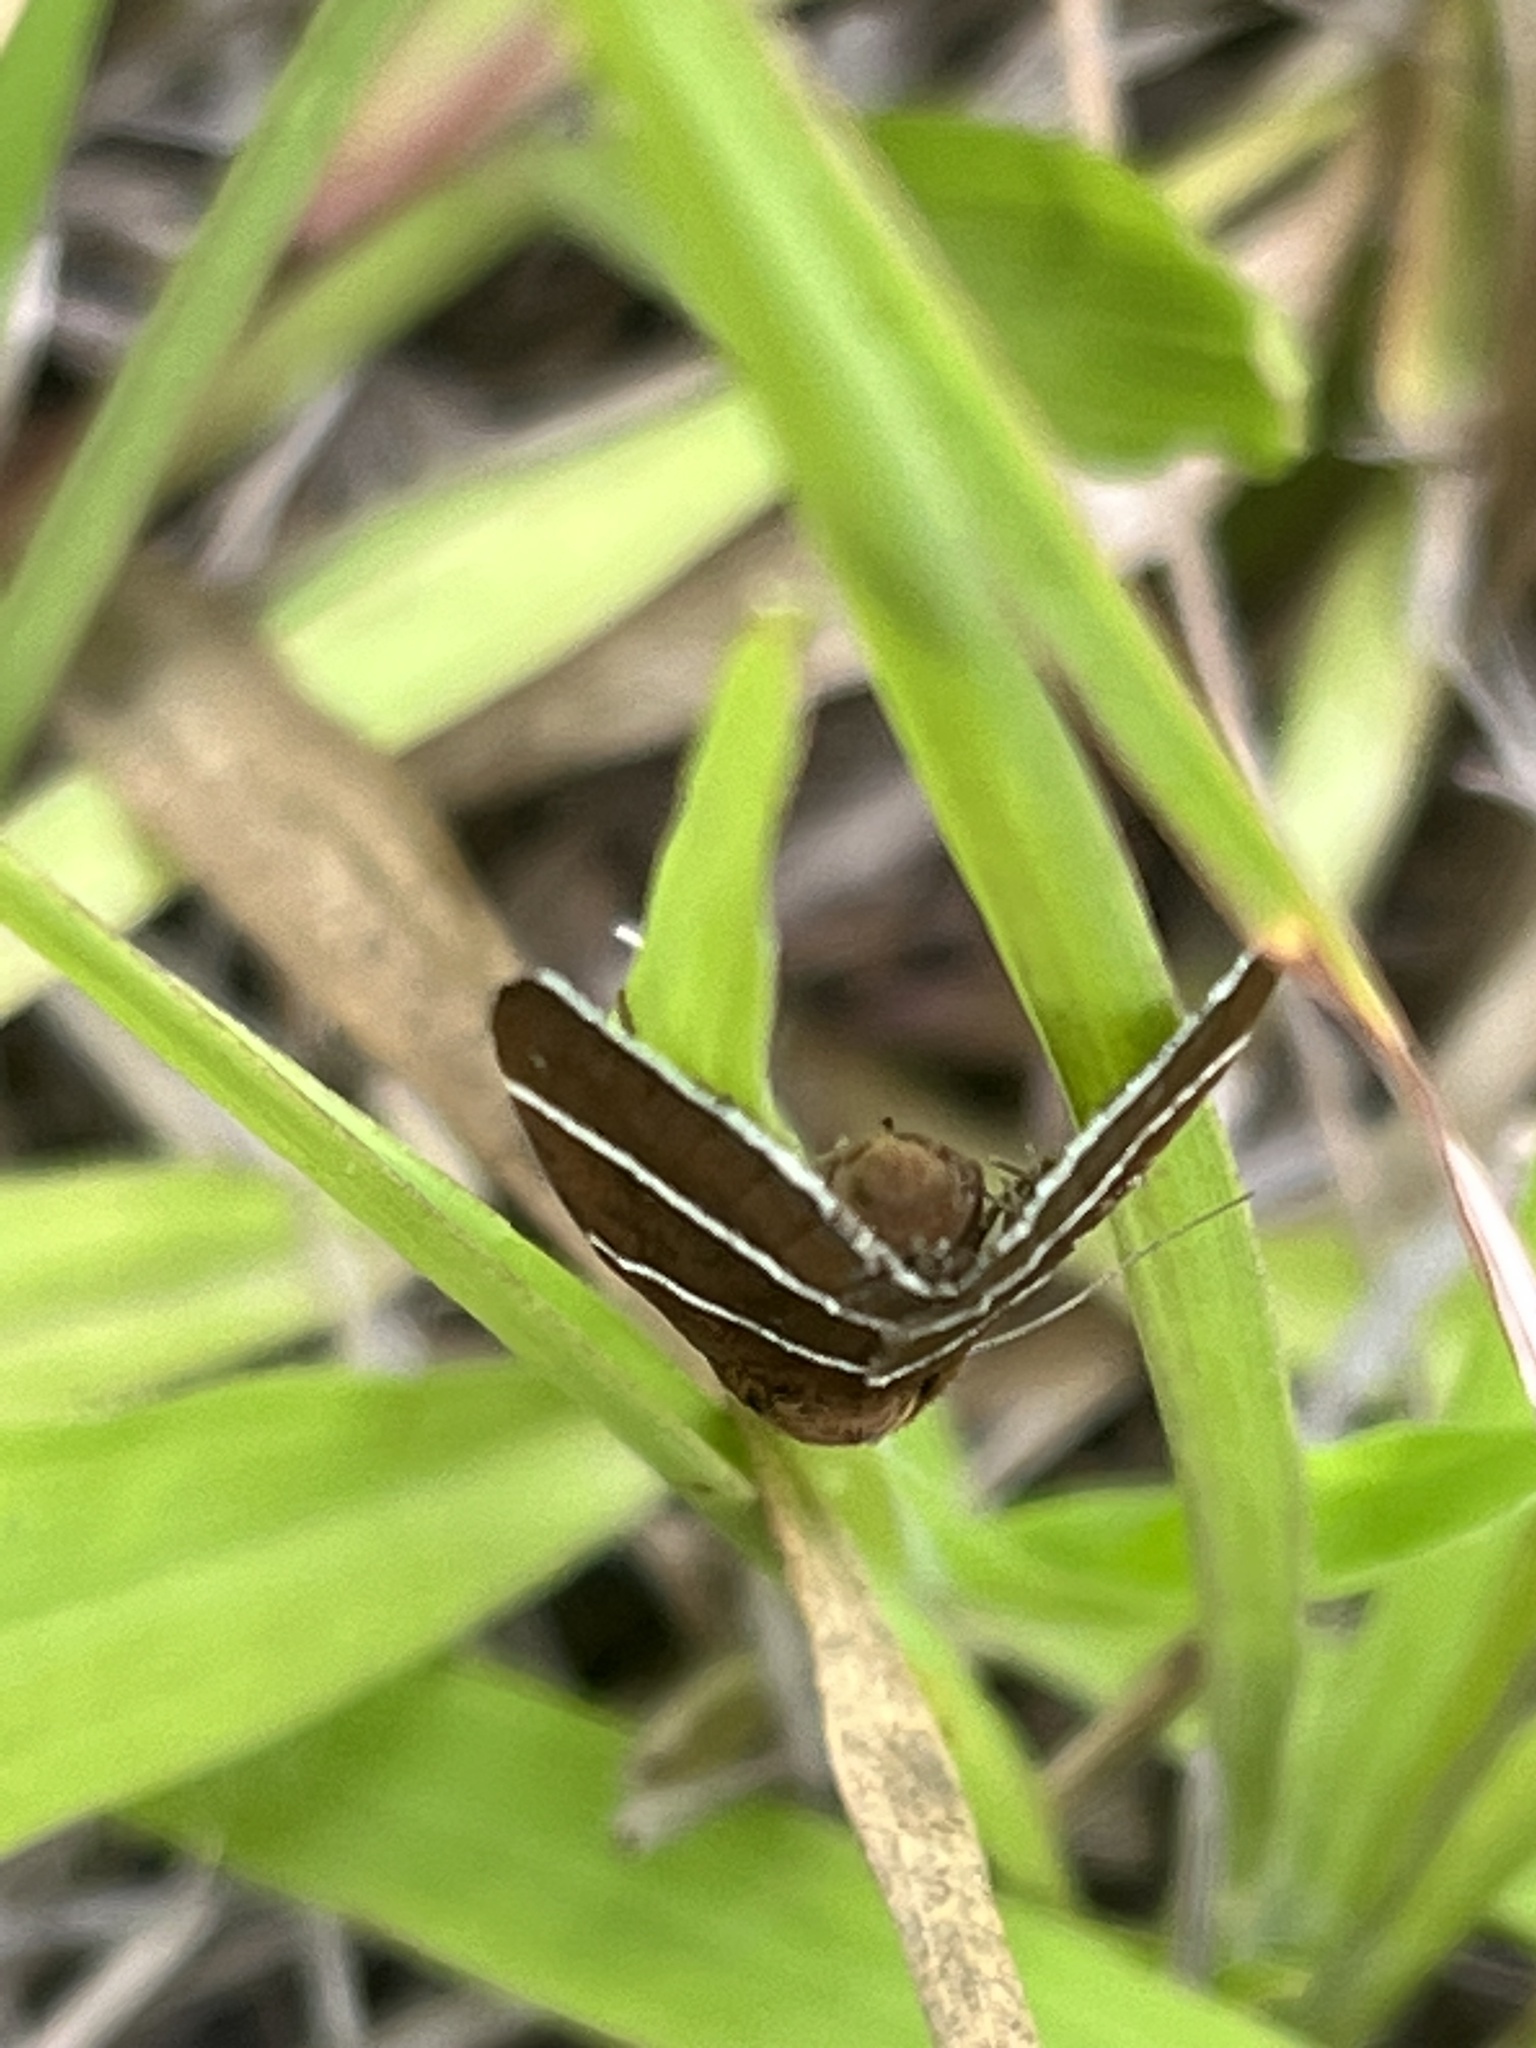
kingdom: Animalia
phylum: Arthropoda
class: Insecta
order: Lepidoptera
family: Erebidae
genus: Argyrostrotis
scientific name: Argyrostrotis quadrifilaris
